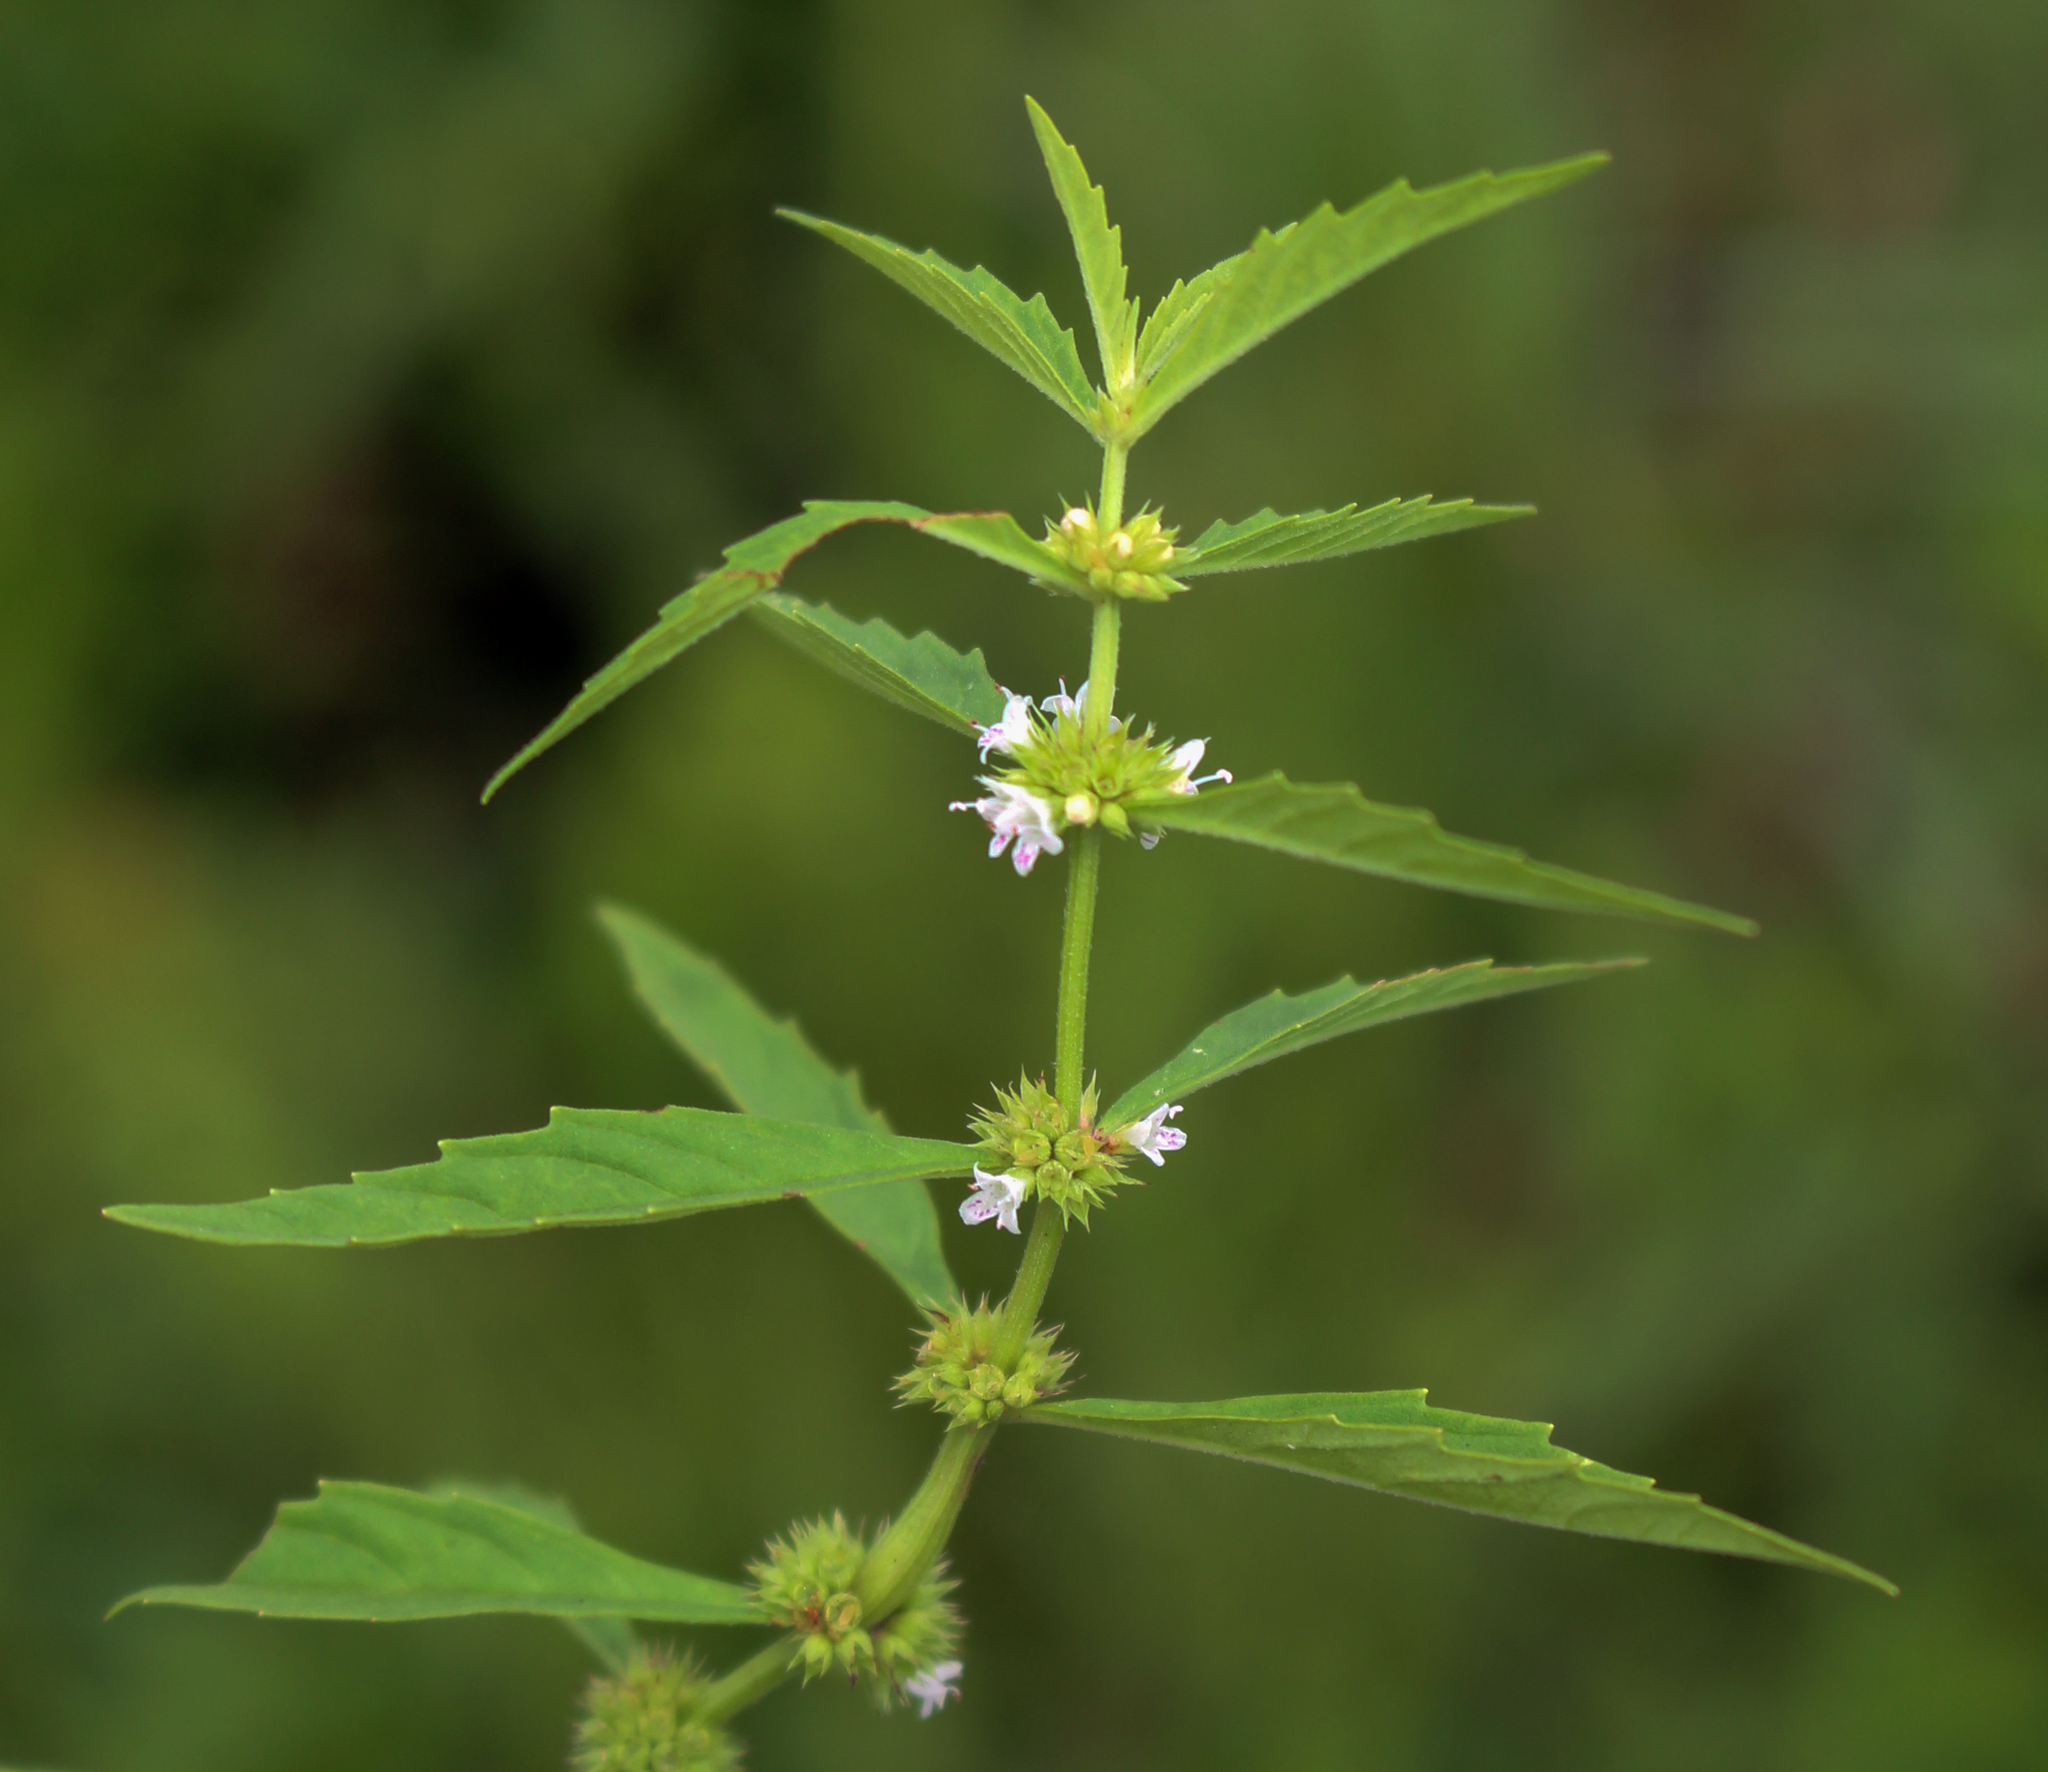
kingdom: Plantae
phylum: Tracheophyta
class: Magnoliopsida
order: Lamiales
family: Lamiaceae
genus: Lycopus
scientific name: Lycopus uniflorus
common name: Northern bugleweed
